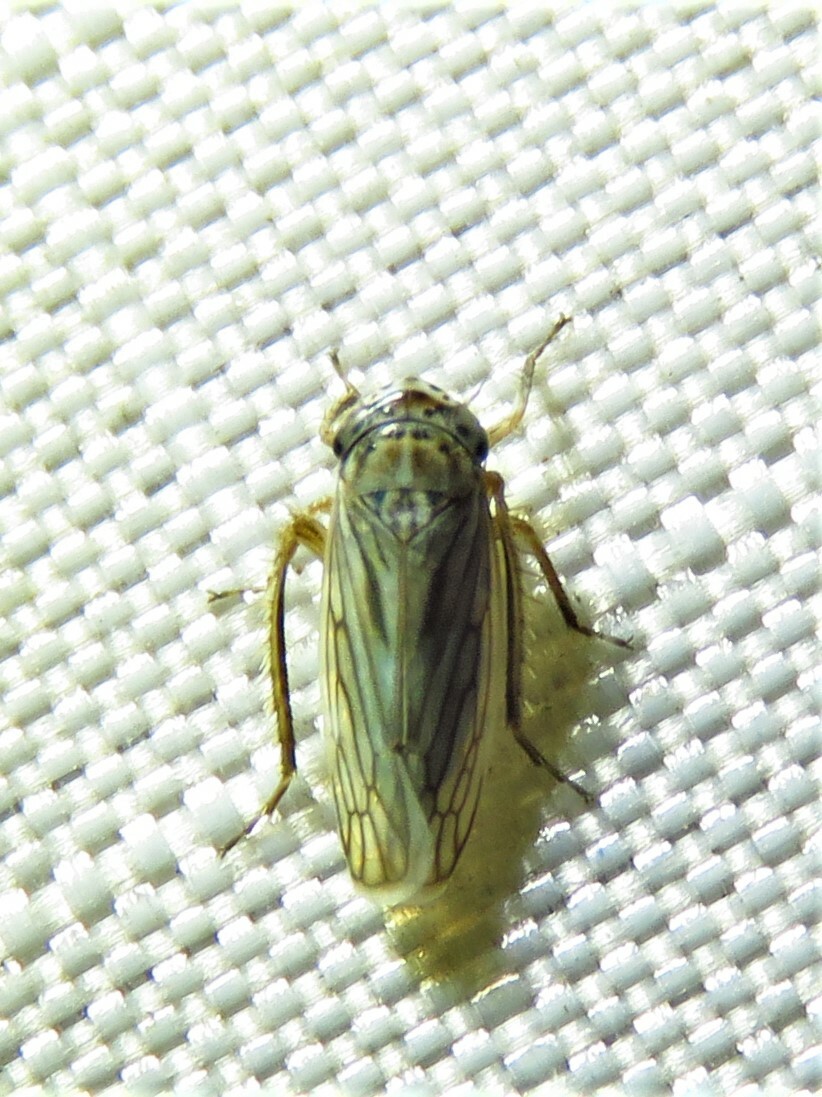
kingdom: Animalia
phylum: Arthropoda
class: Insecta
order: Hemiptera
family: Cicadellidae
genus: Exitianus
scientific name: Exitianus exitiosus
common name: Gray lawn leafhopper
